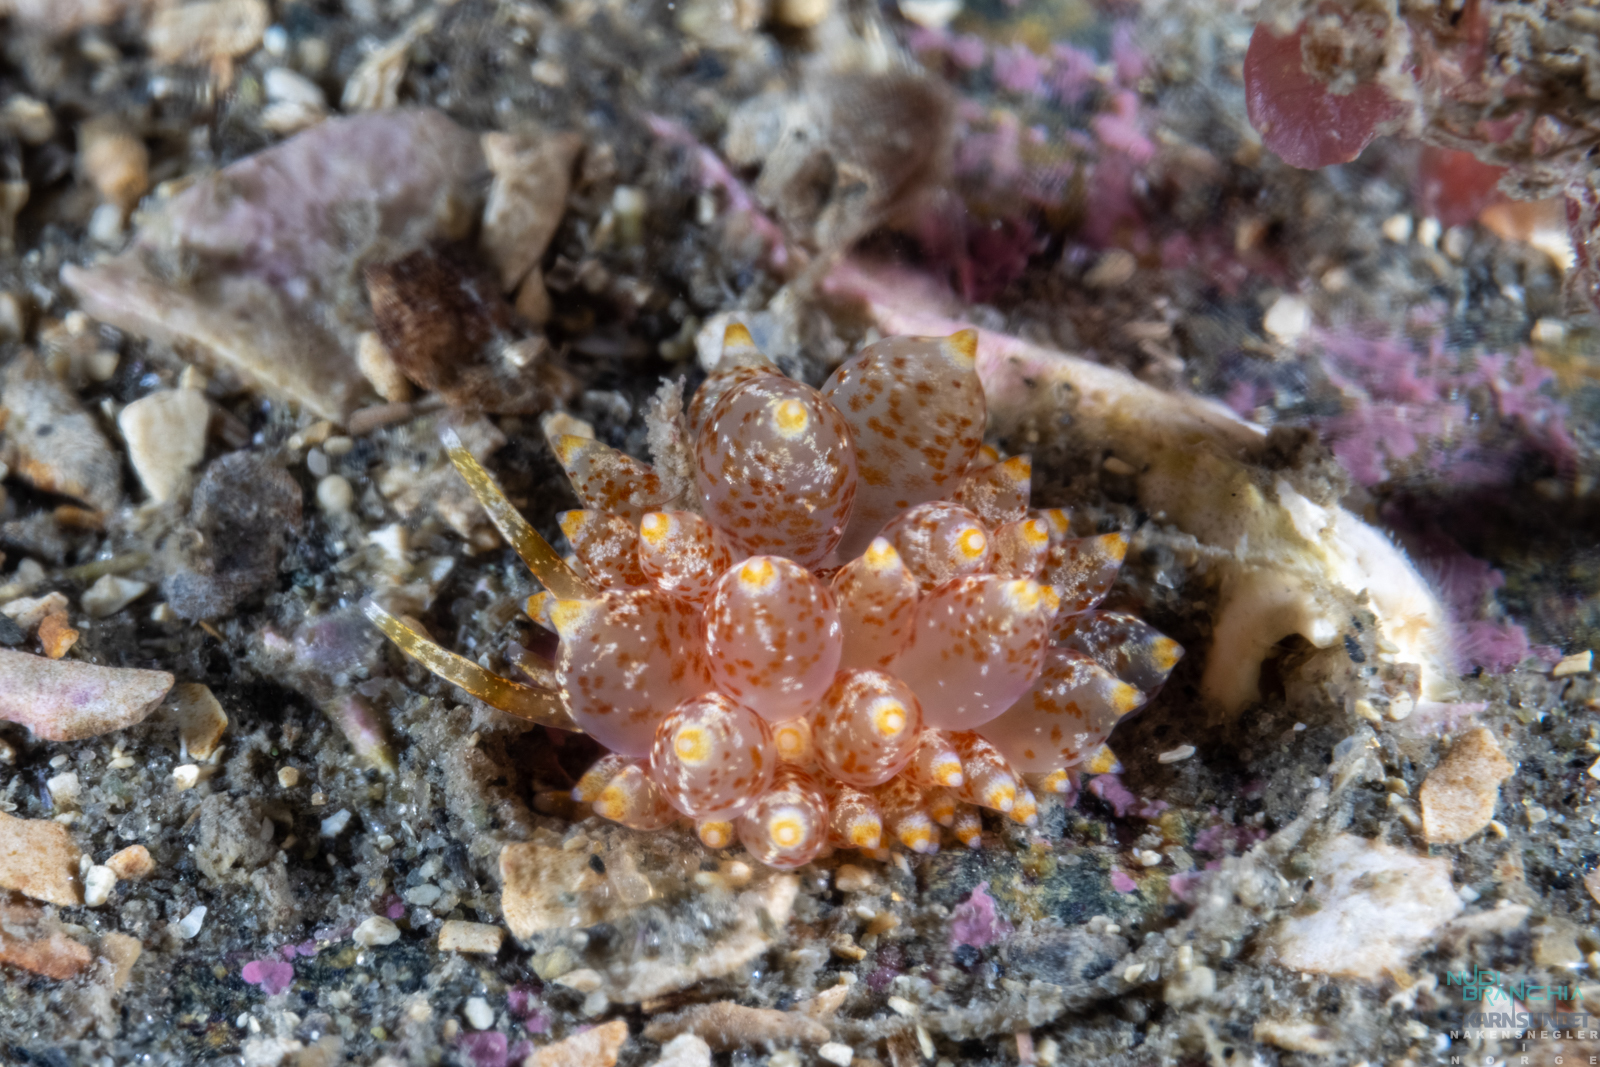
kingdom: Animalia
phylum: Mollusca
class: Gastropoda
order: Nudibranchia
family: Eubranchidae
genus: Amphorina
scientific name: Amphorina pallida
